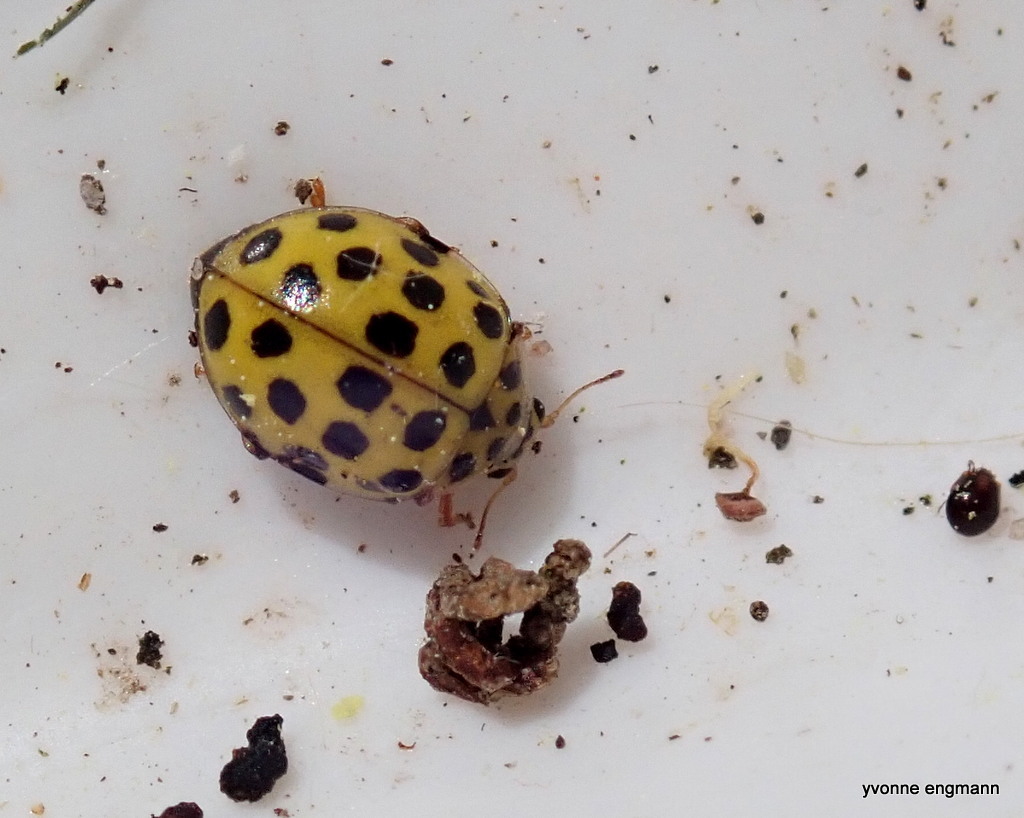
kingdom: Animalia
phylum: Arthropoda
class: Insecta
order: Coleoptera
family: Coccinellidae
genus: Psyllobora
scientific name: Psyllobora vigintiduopunctata
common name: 22-spot ladybird
